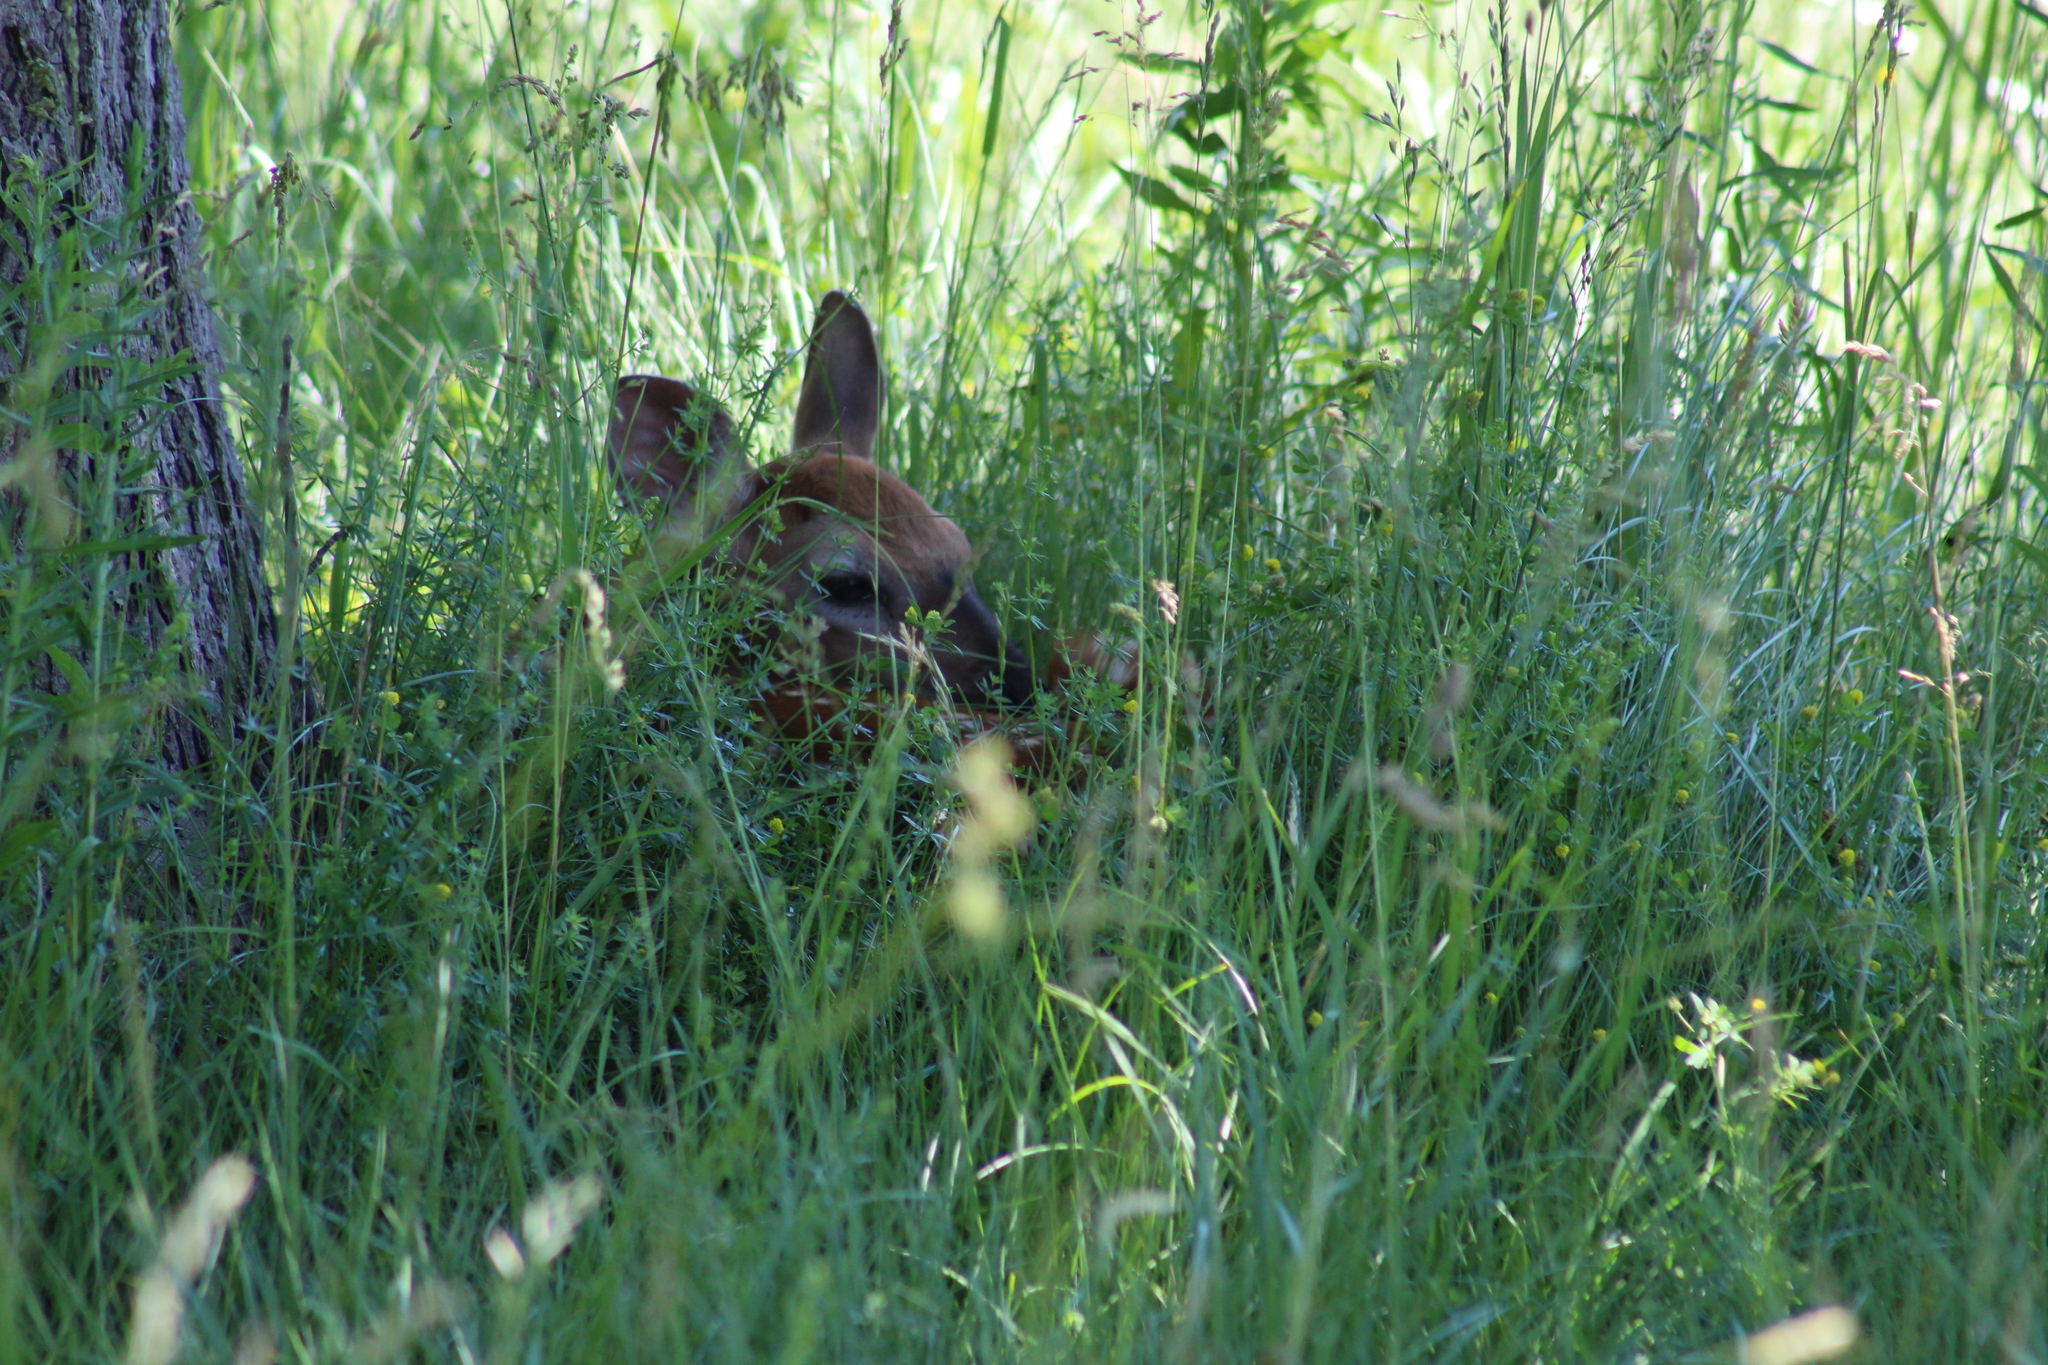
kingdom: Animalia
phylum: Chordata
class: Mammalia
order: Artiodactyla
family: Cervidae
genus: Odocoileus
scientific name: Odocoileus virginianus
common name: White-tailed deer
